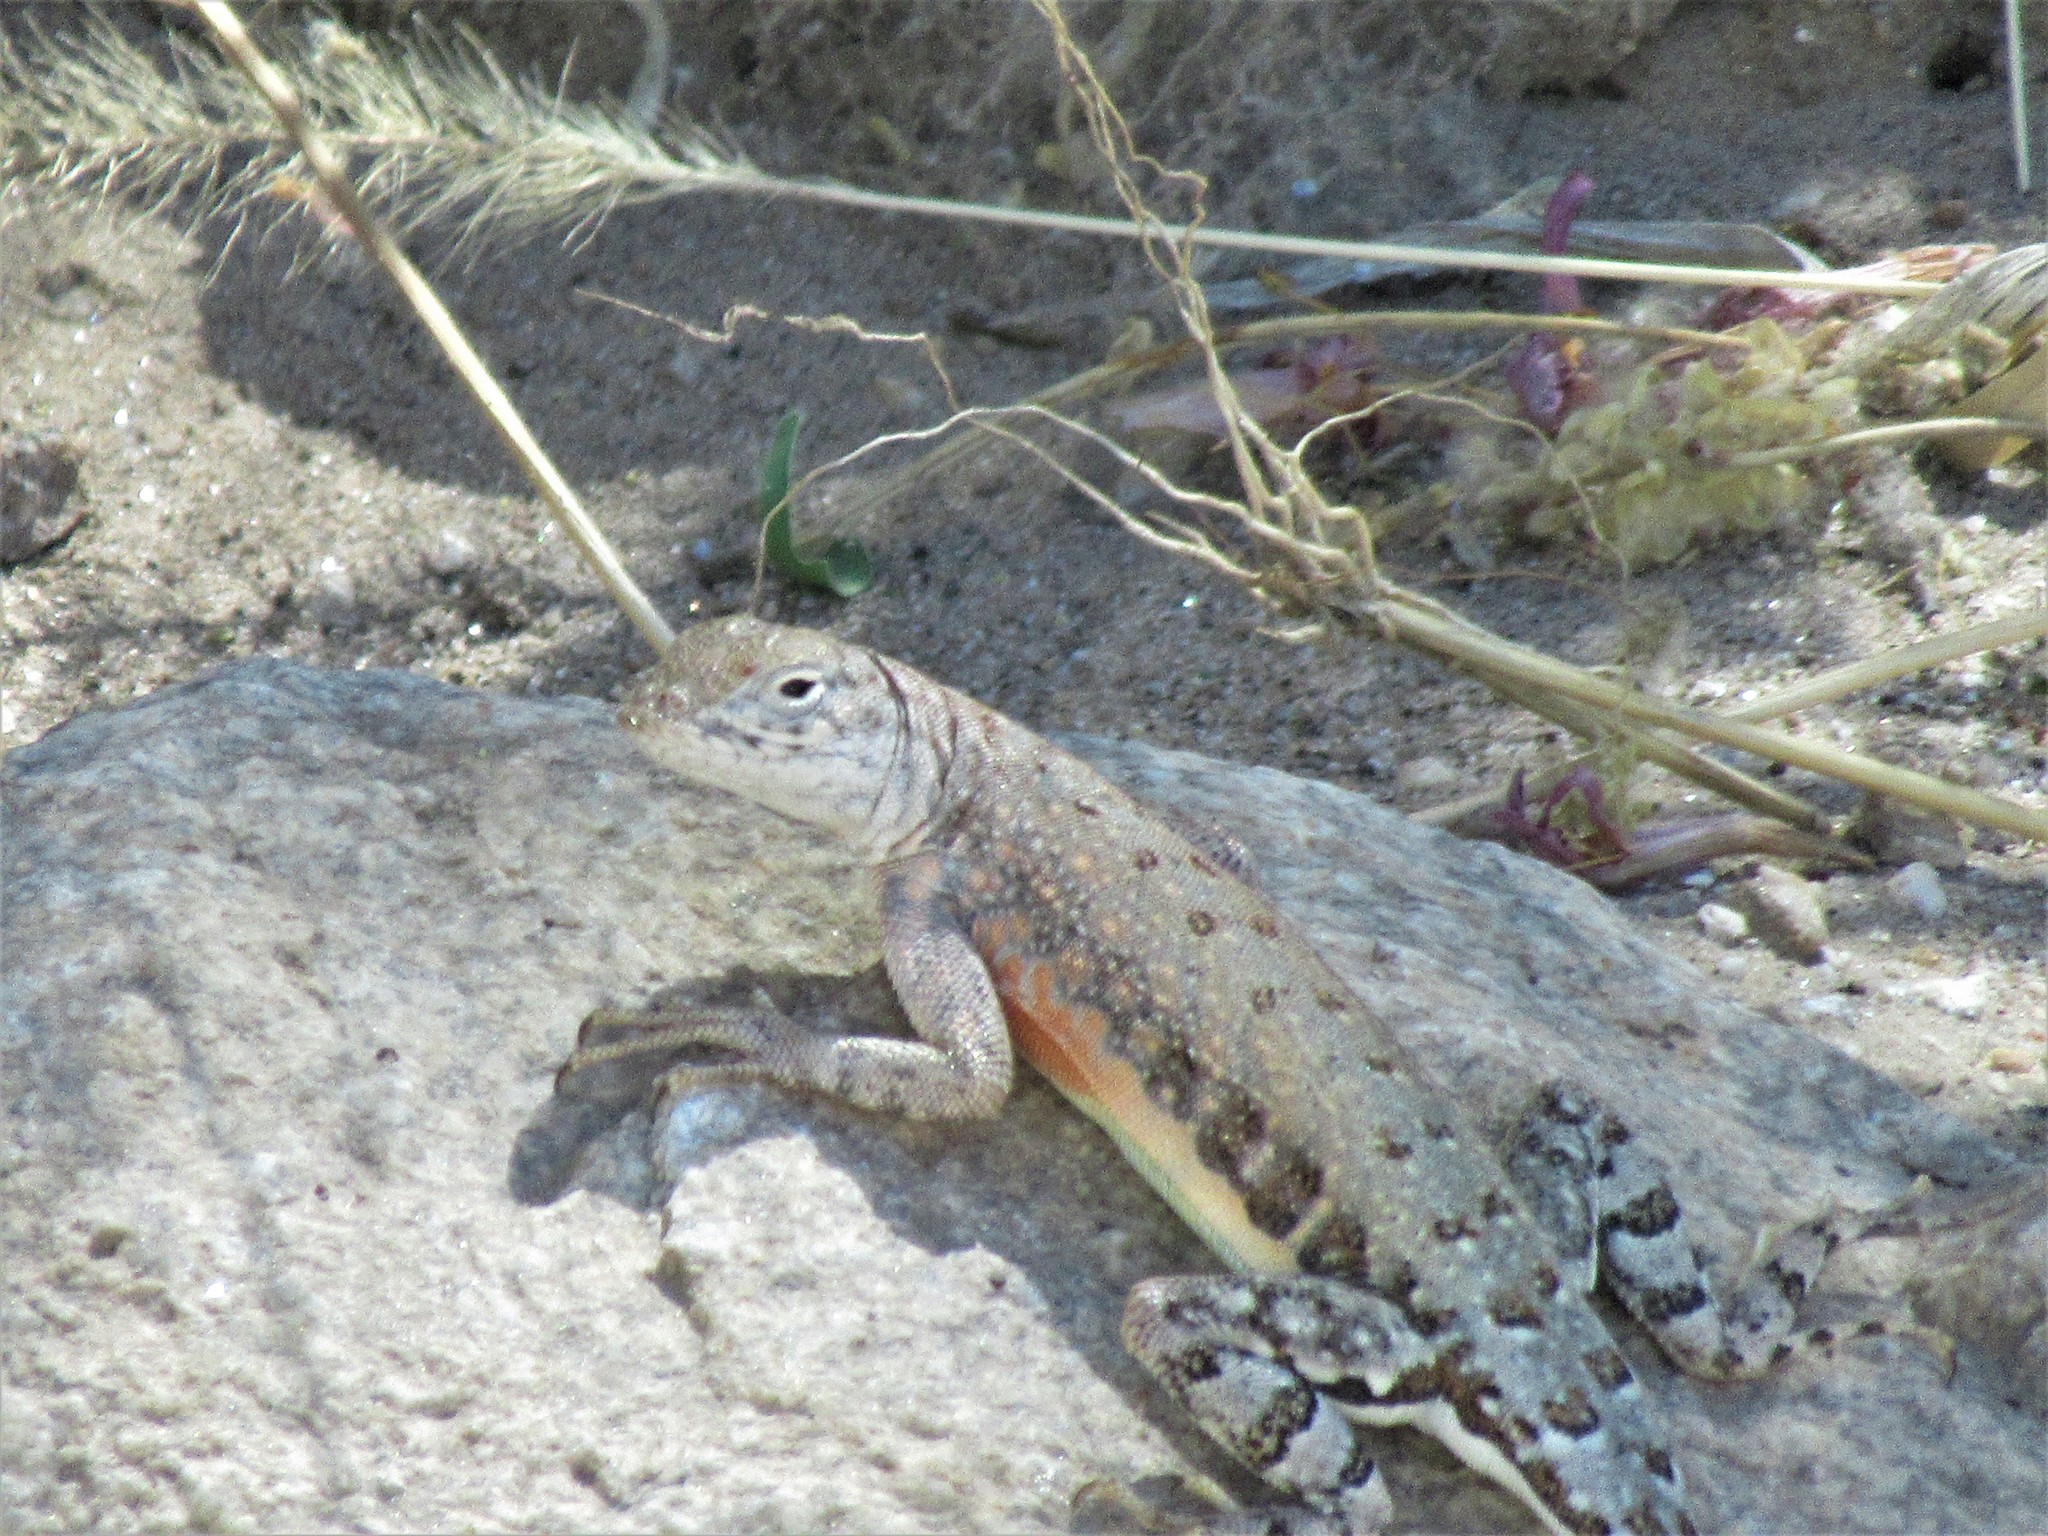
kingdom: Animalia
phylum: Chordata
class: Squamata
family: Phrynosomatidae
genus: Cophosaurus
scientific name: Cophosaurus texanus
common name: Greater earless lizard
